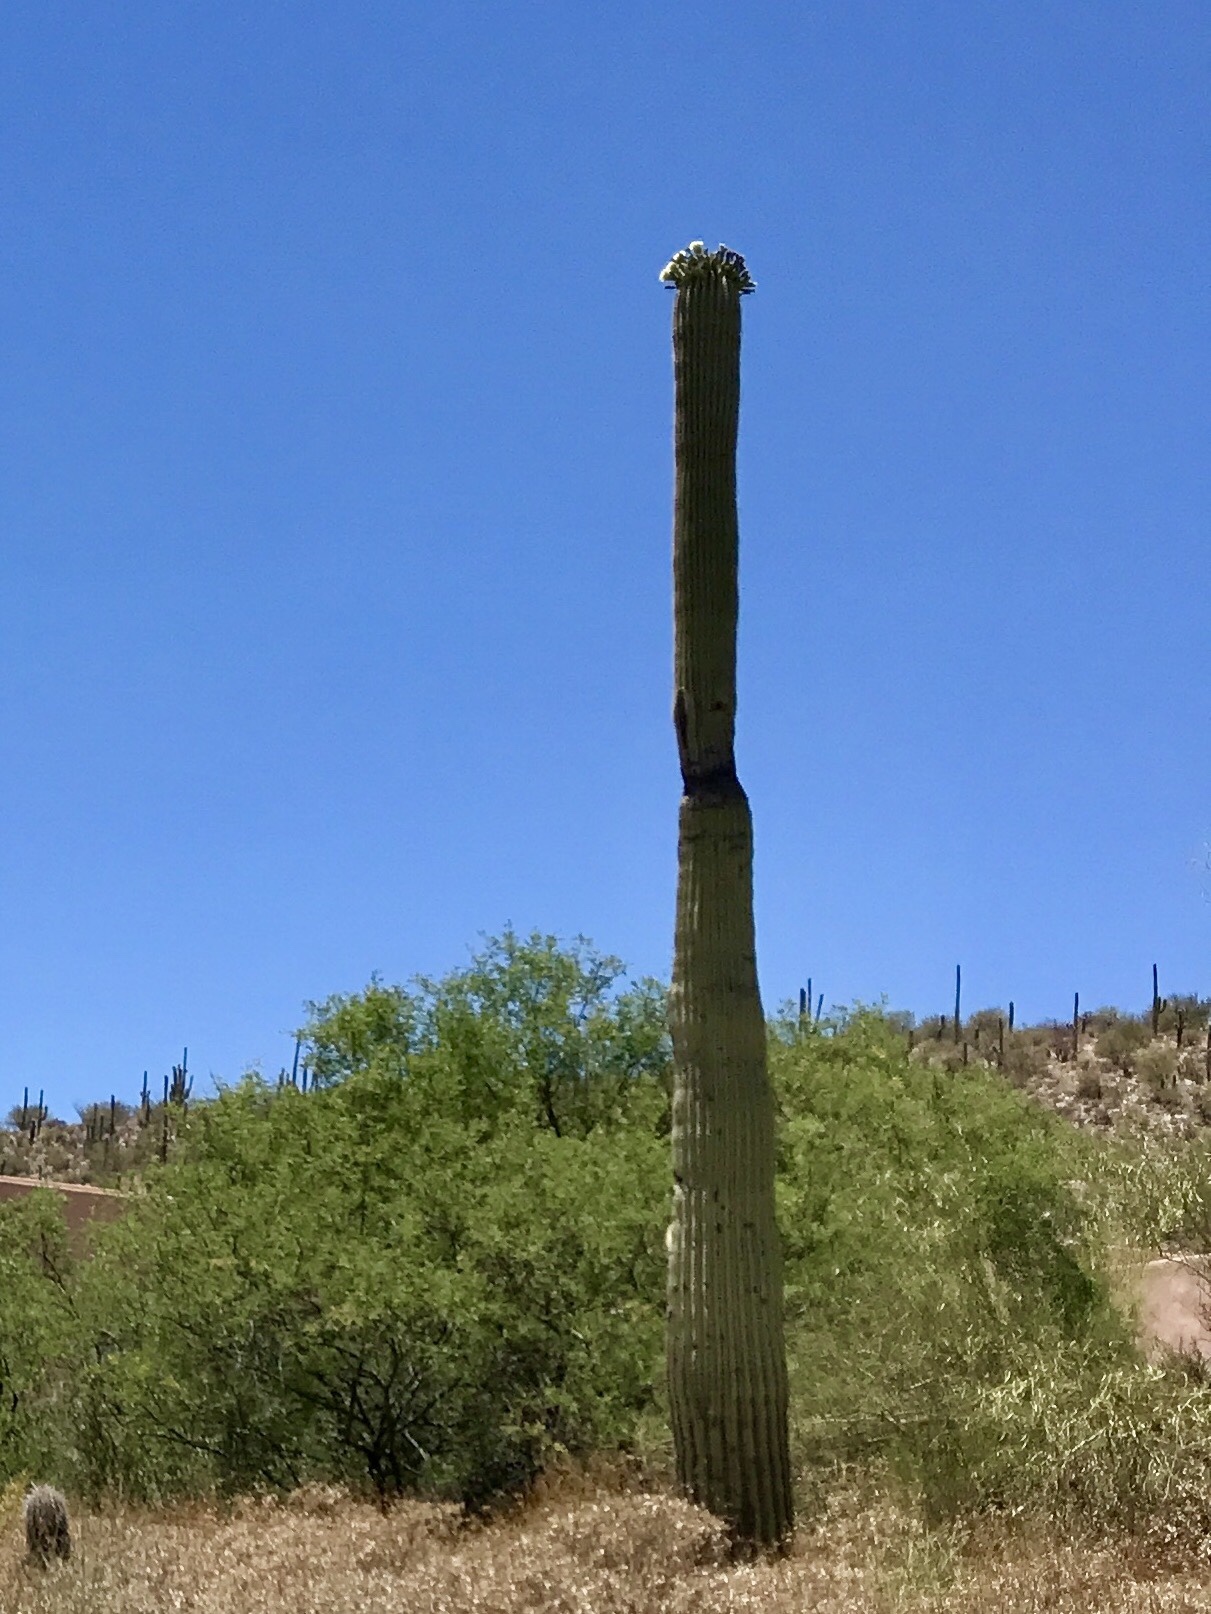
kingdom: Plantae
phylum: Tracheophyta
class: Magnoliopsida
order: Caryophyllales
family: Cactaceae
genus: Carnegiea
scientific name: Carnegiea gigantea
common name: Saguaro
